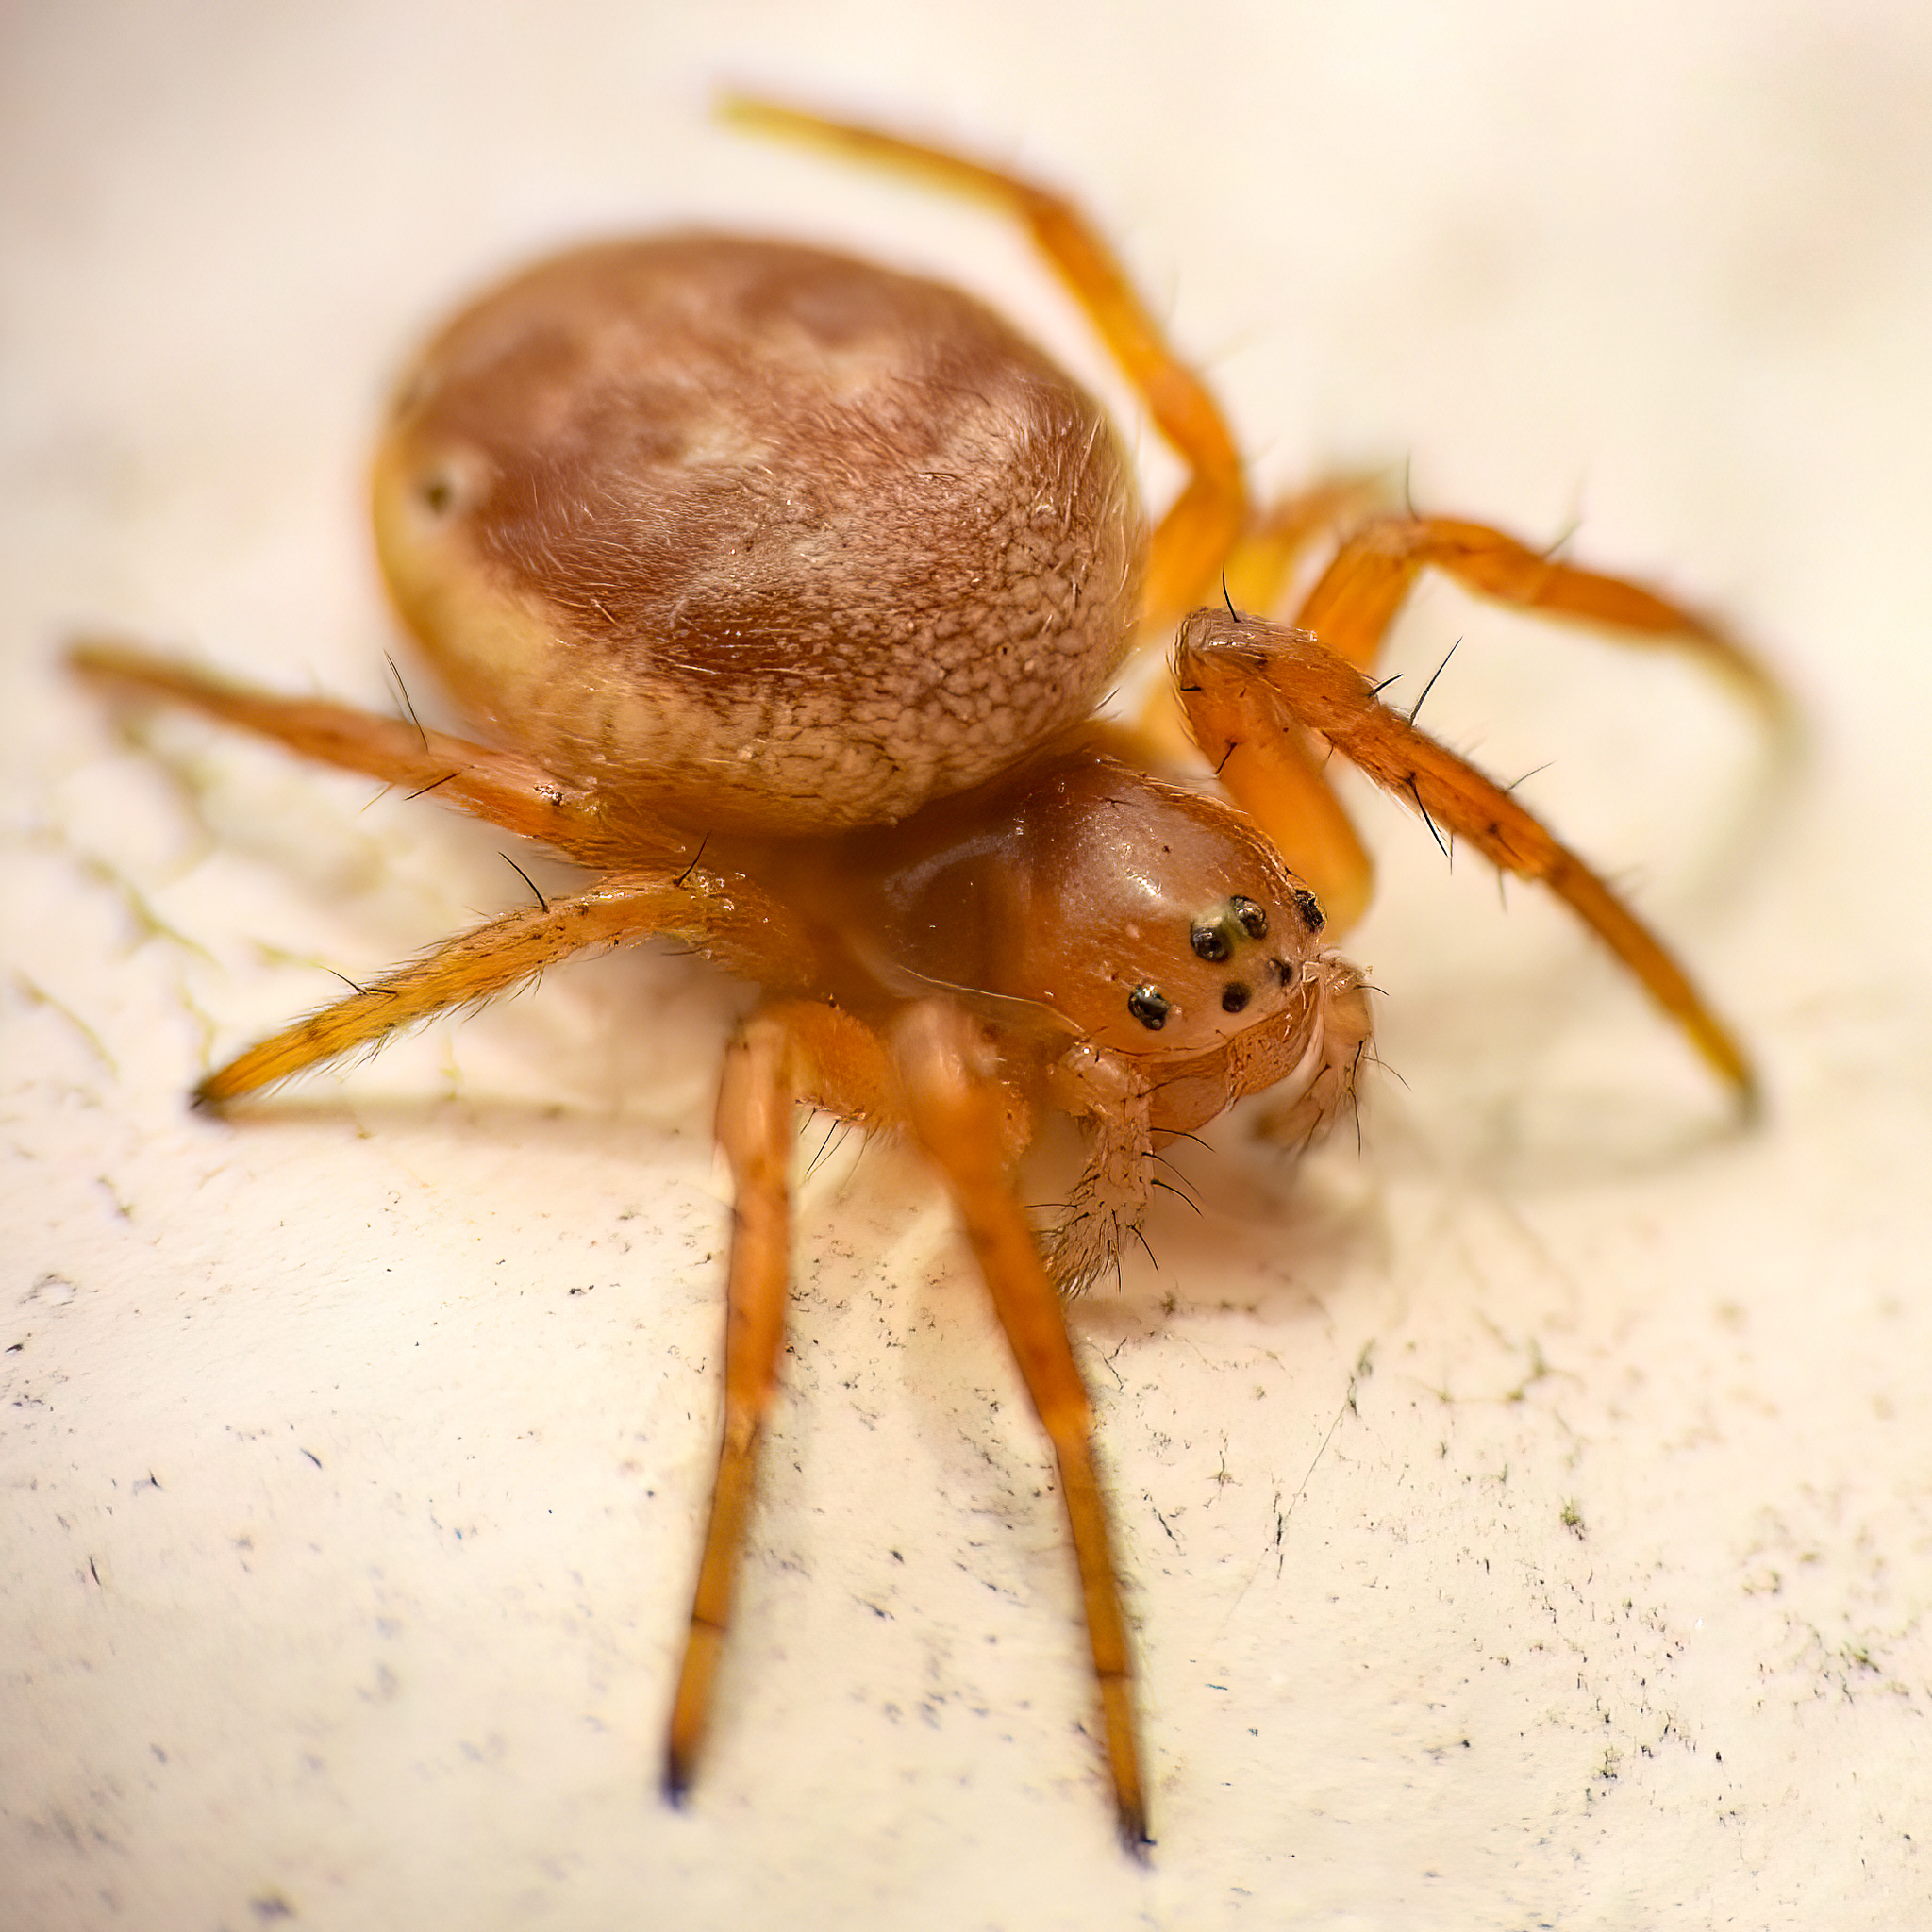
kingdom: Animalia
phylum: Arthropoda
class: Arachnida
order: Araneae
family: Araneidae
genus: Araniella
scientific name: Araniella displicata
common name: Sixspotted orb weaver
